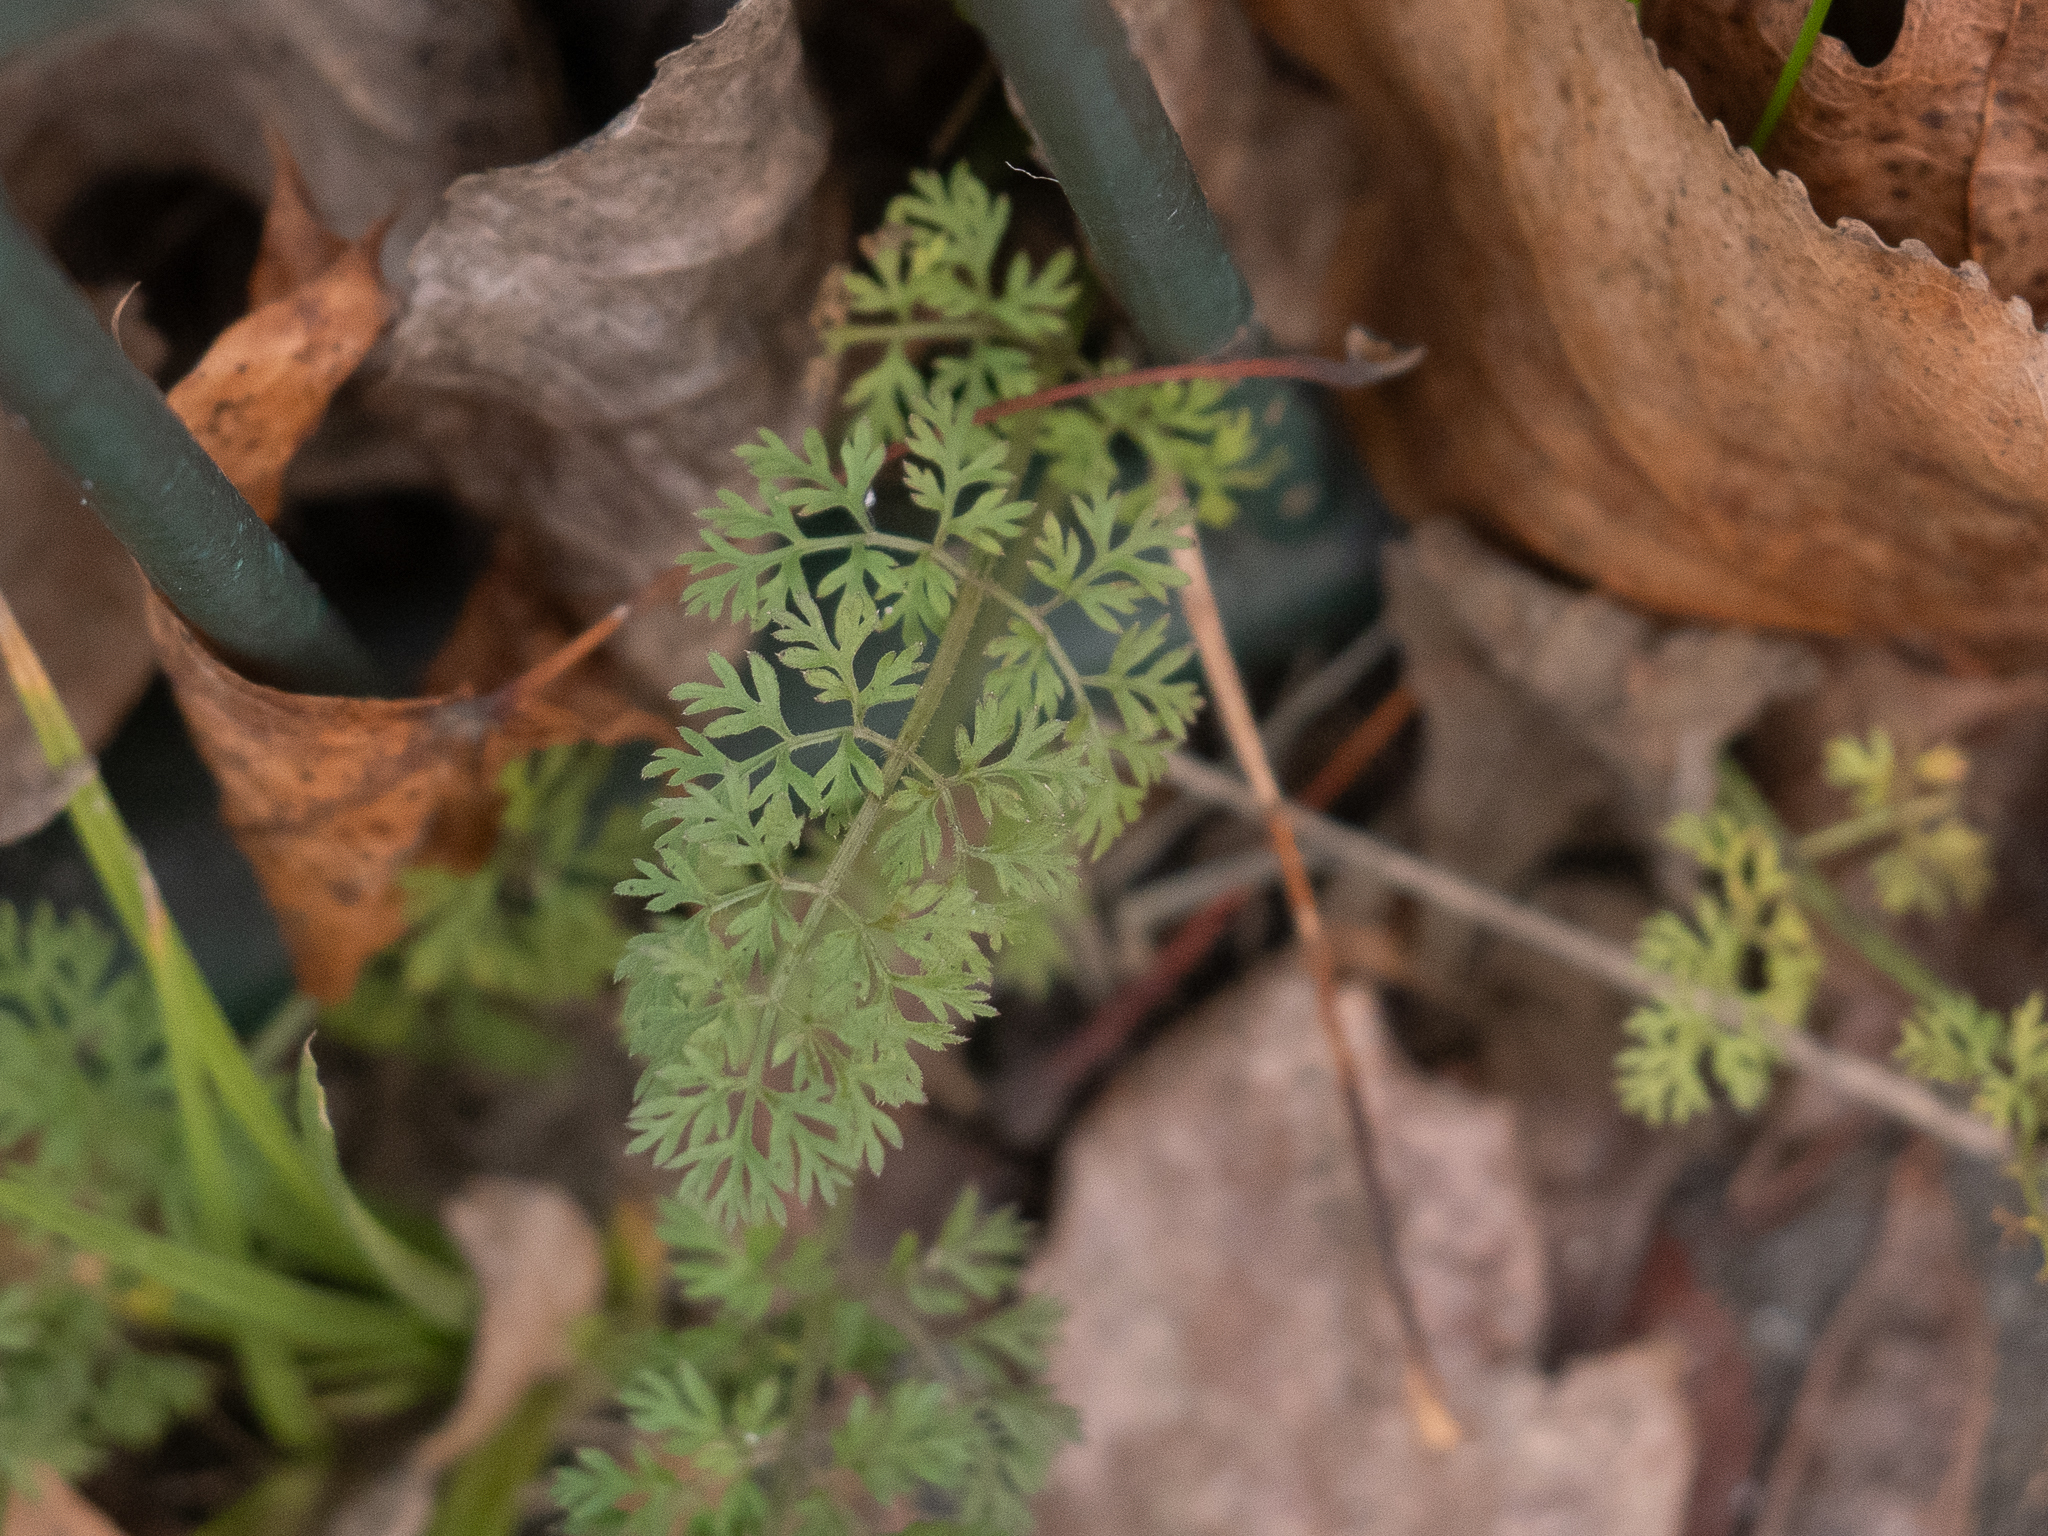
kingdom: Plantae
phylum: Tracheophyta
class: Magnoliopsida
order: Apiales
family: Apiaceae
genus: Daucus
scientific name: Daucus carota
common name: Wild carrot
